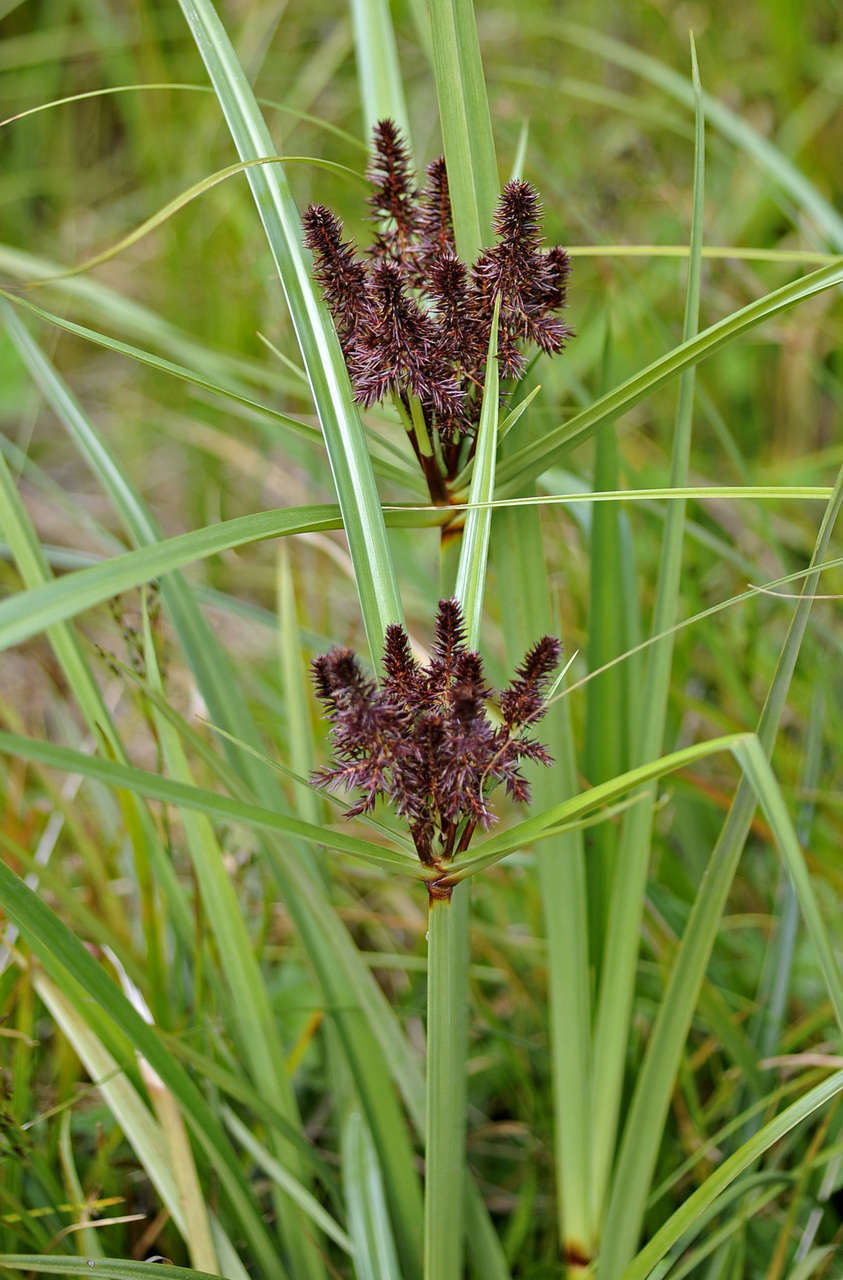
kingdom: Plantae
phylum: Tracheophyta
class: Liliopsida
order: Poales
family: Cyperaceae
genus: Cyperus
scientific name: Cyperus lucidus
